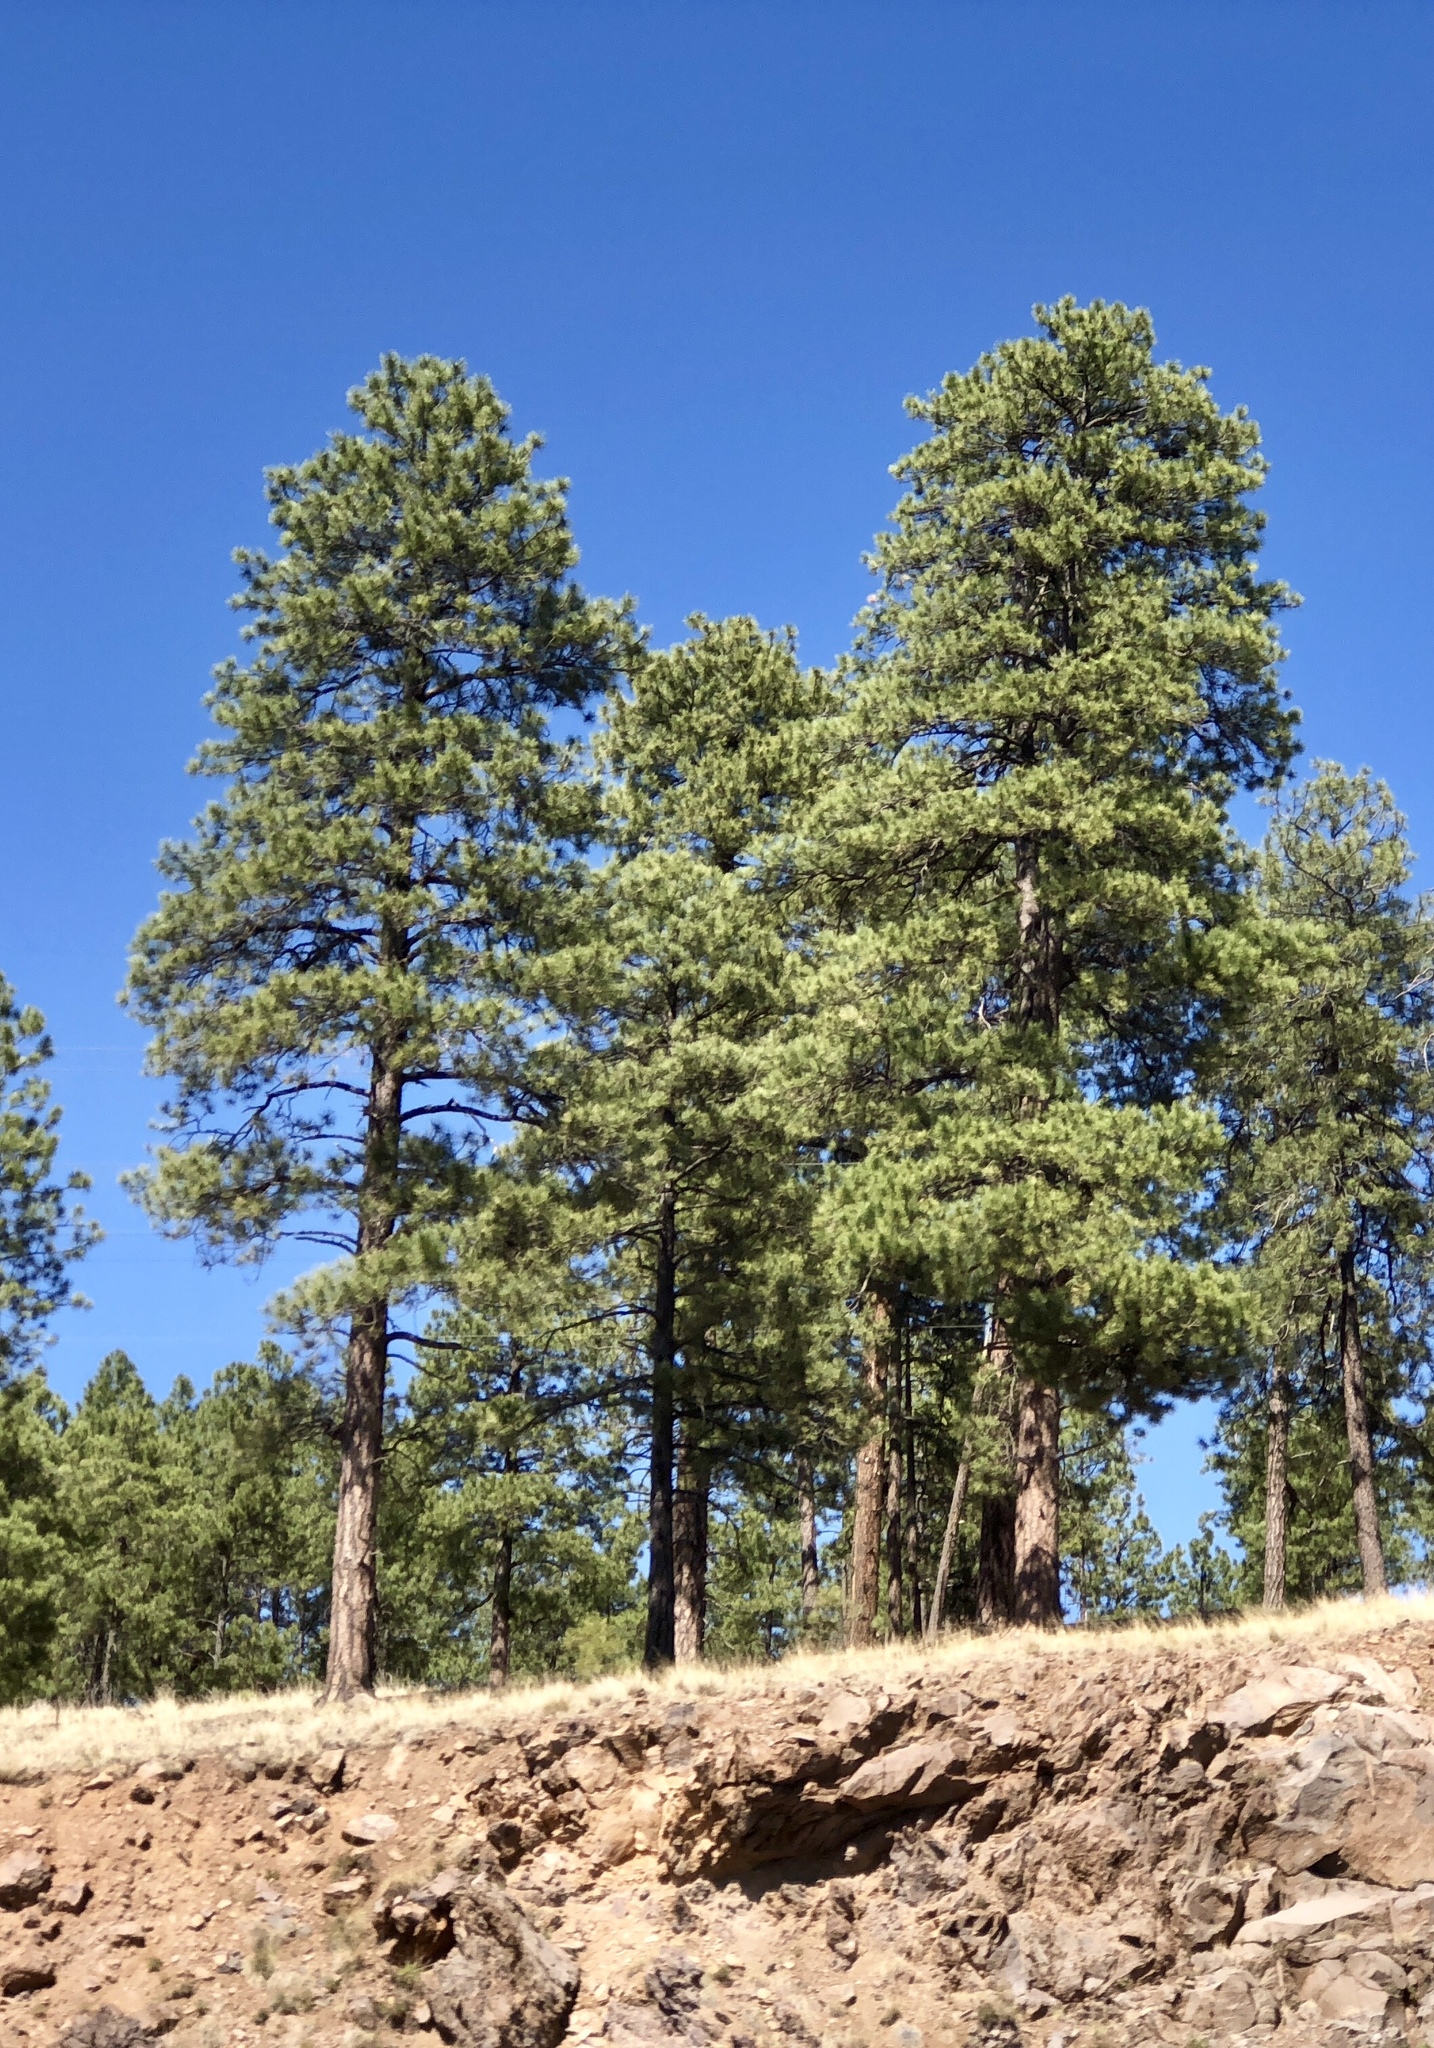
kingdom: Plantae
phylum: Tracheophyta
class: Pinopsida
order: Pinales
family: Pinaceae
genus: Pinus
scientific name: Pinus ponderosa
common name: Western yellow-pine
